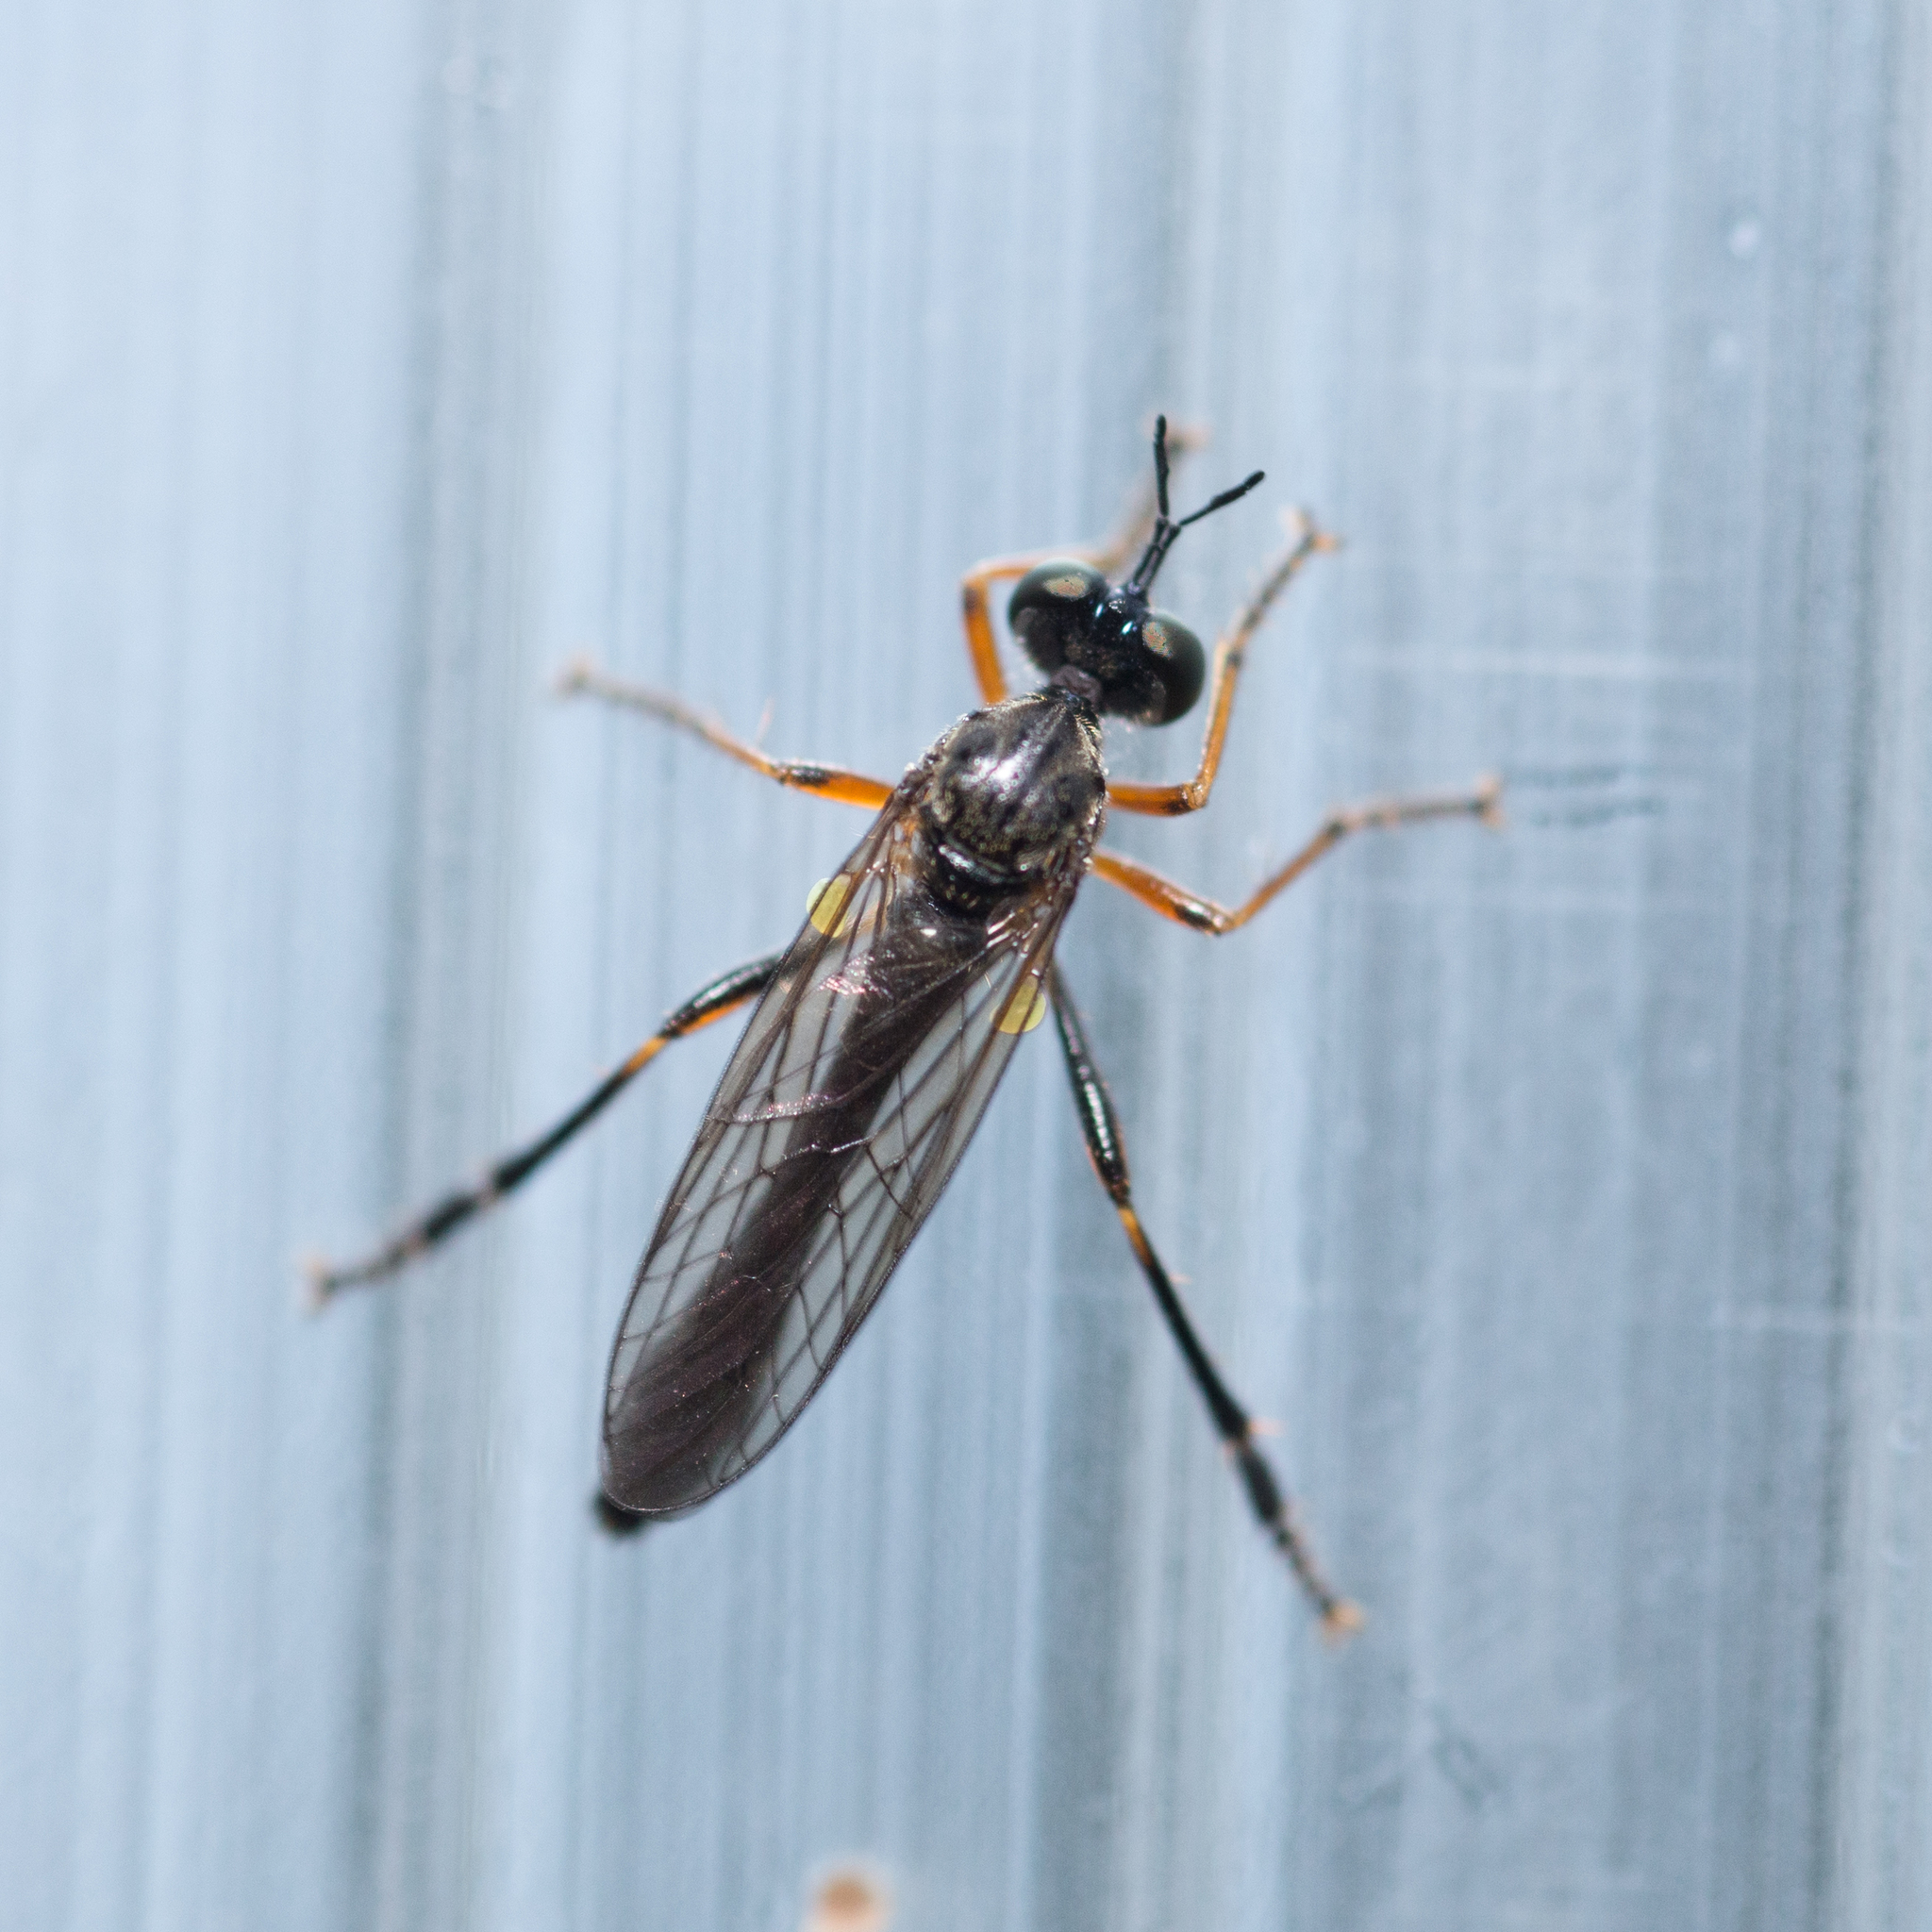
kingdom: Animalia
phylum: Arthropoda
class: Insecta
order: Diptera
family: Asilidae
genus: Dioctria
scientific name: Dioctria hyalipennis
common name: Stripe-legged robberfly
